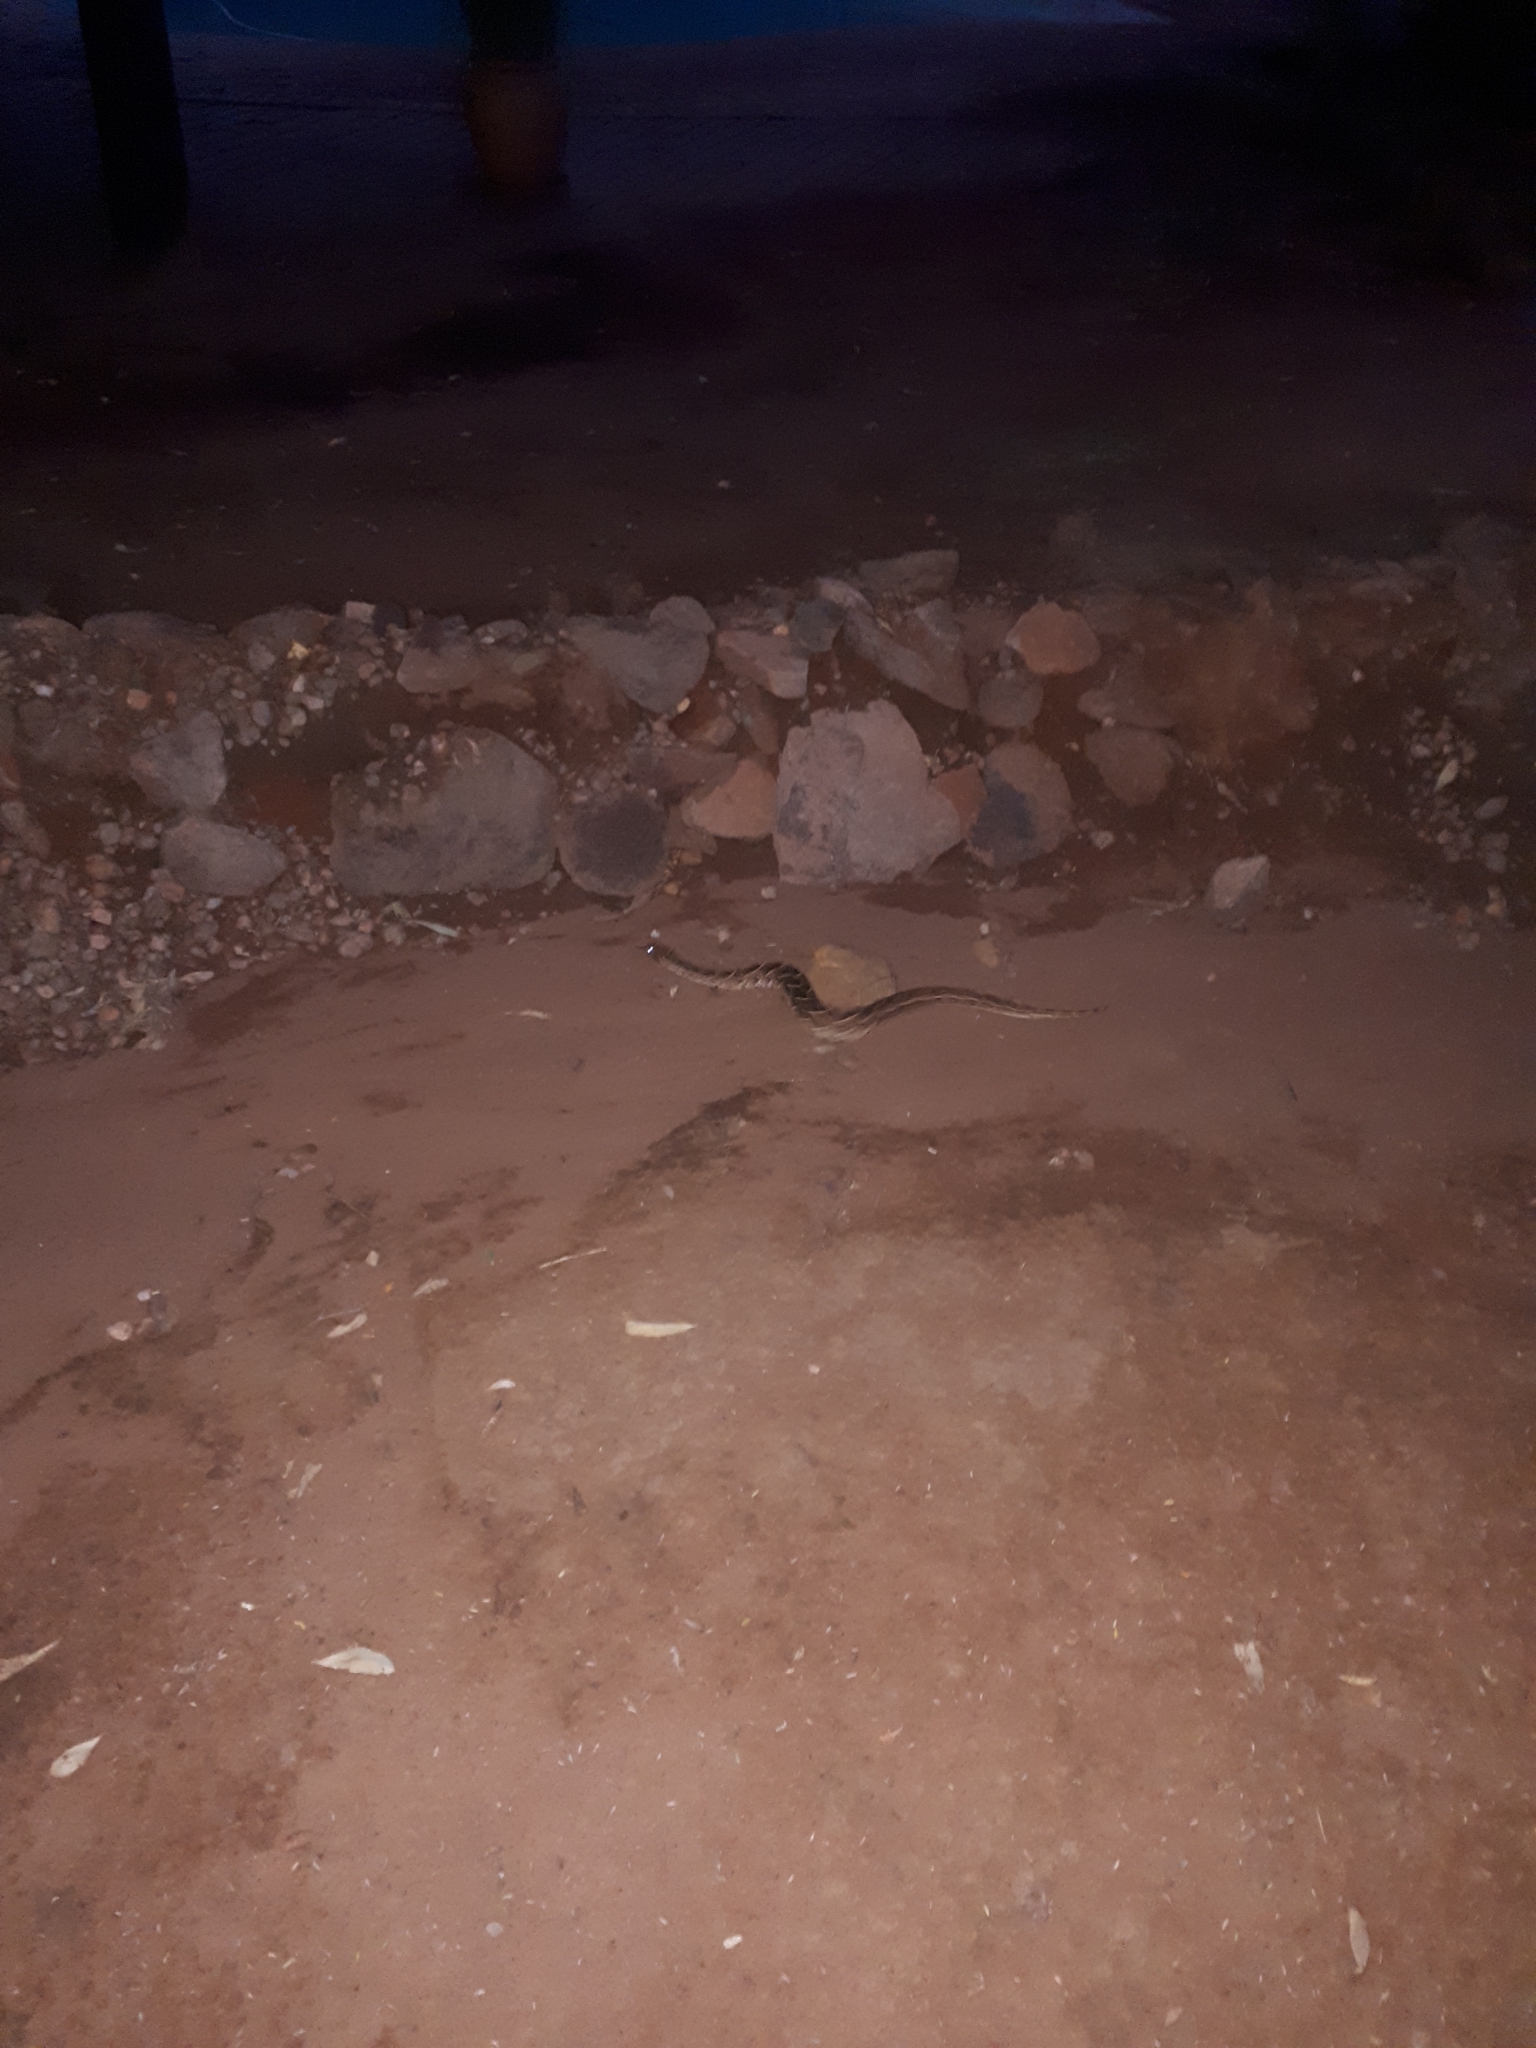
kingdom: Animalia
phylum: Chordata
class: Squamata
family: Viperidae
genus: Bitis
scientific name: Bitis arietans
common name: Puff adder
